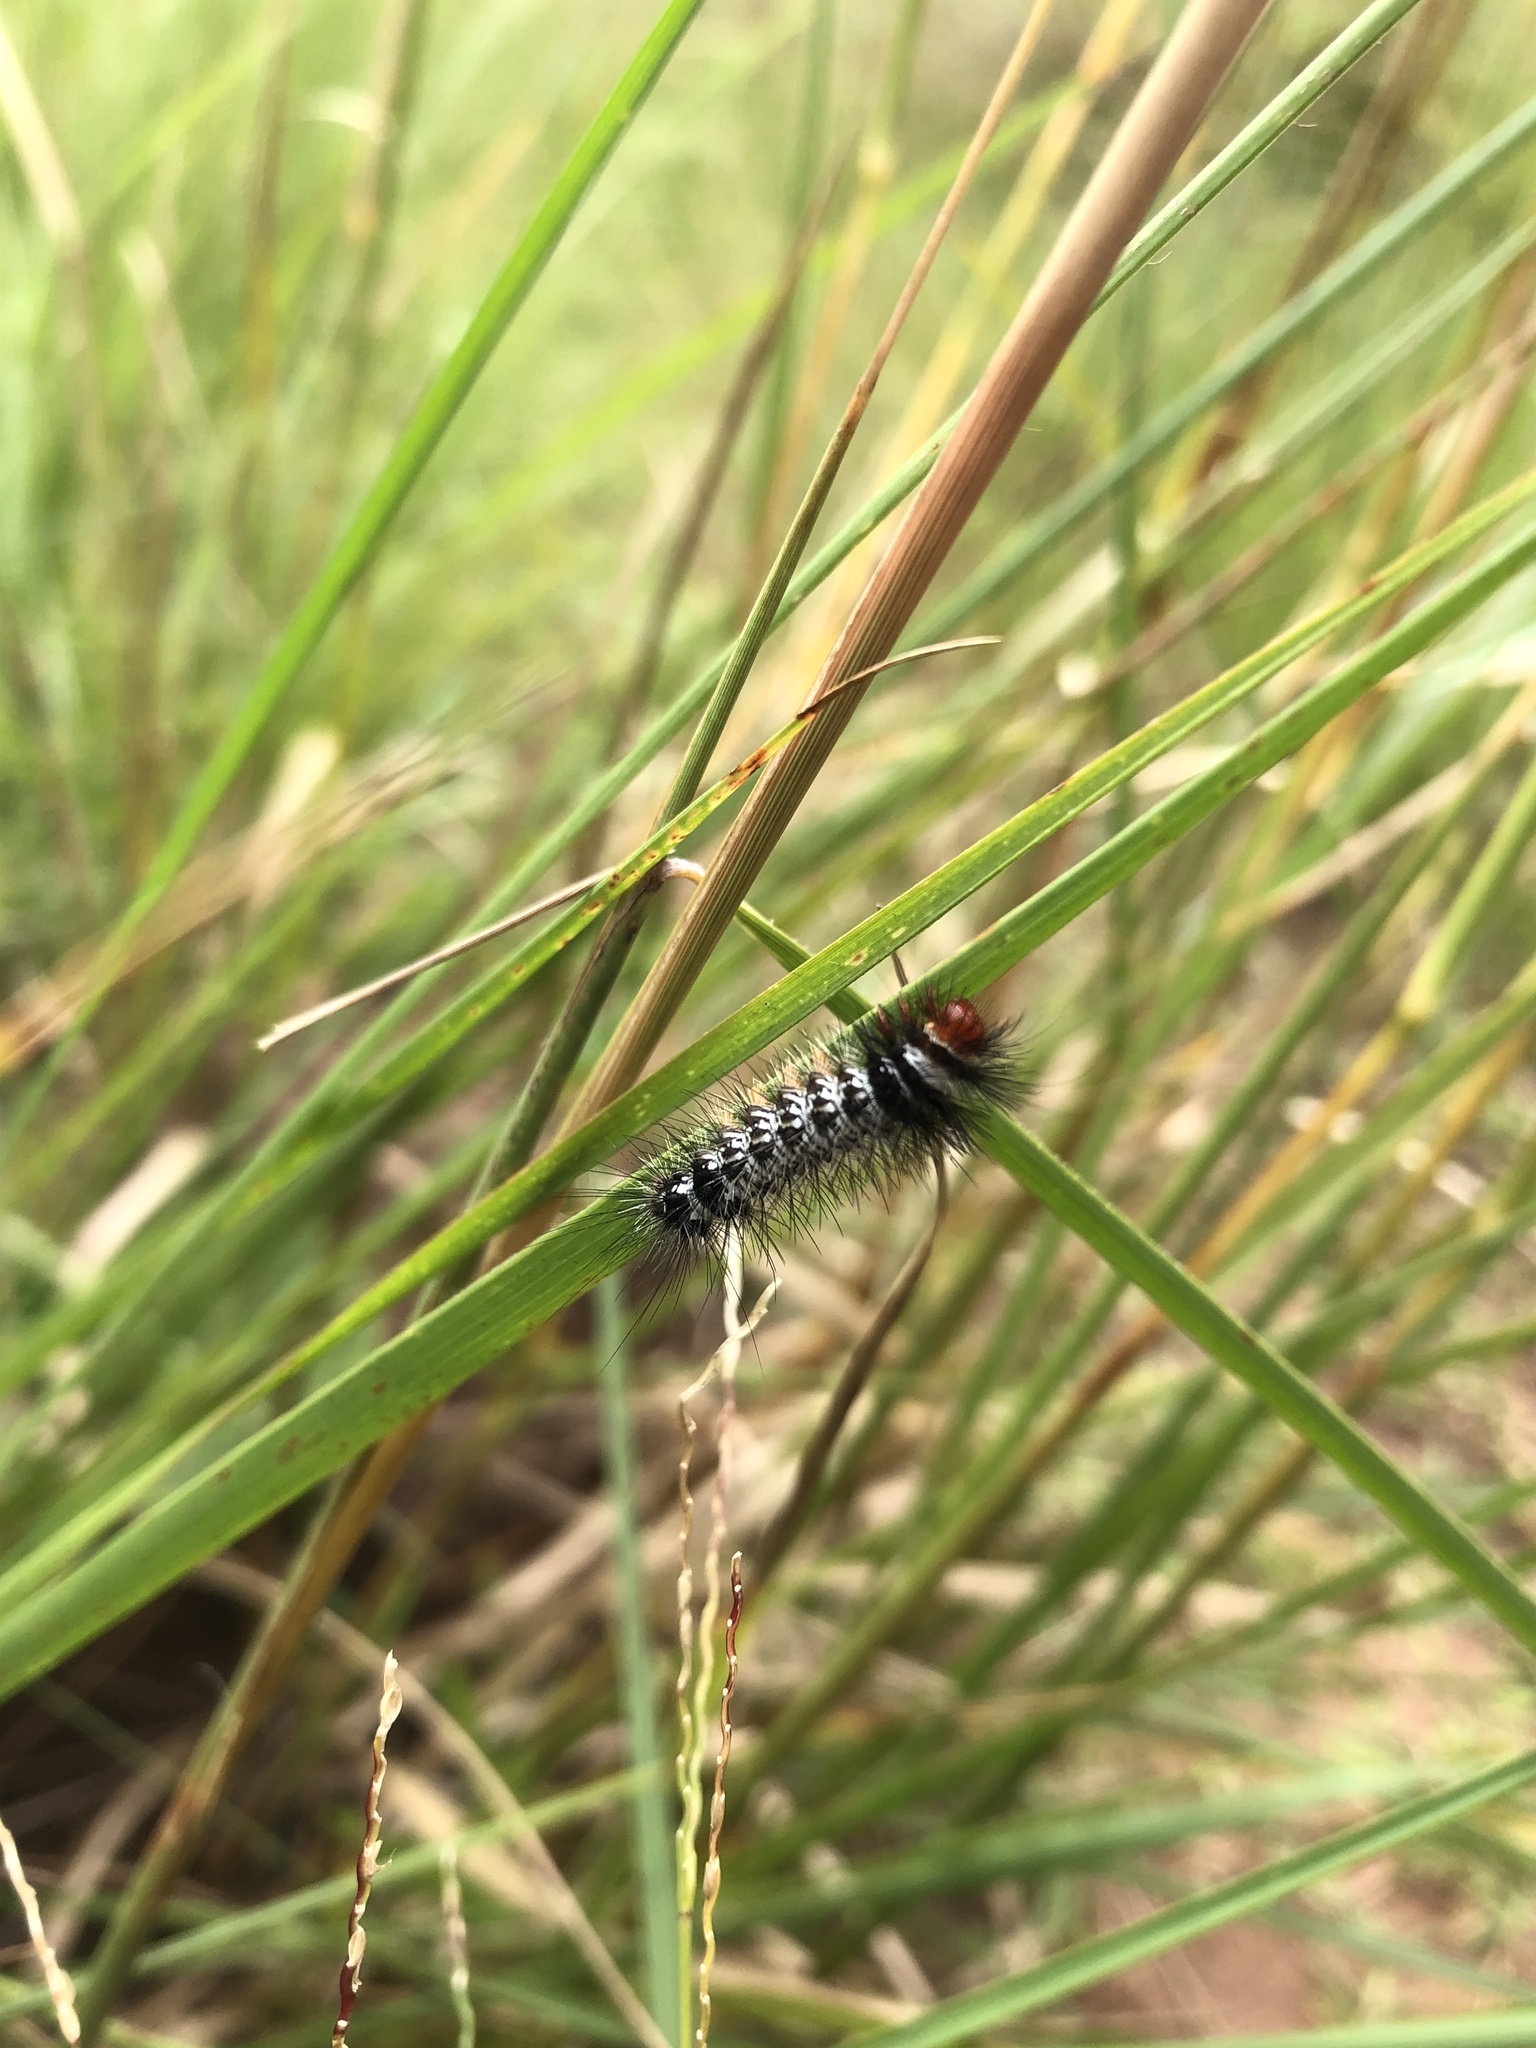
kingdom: Animalia
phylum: Arthropoda
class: Insecta
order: Lepidoptera
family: Erebidae
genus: Afromurzinia
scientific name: Afromurzinia lutescens
